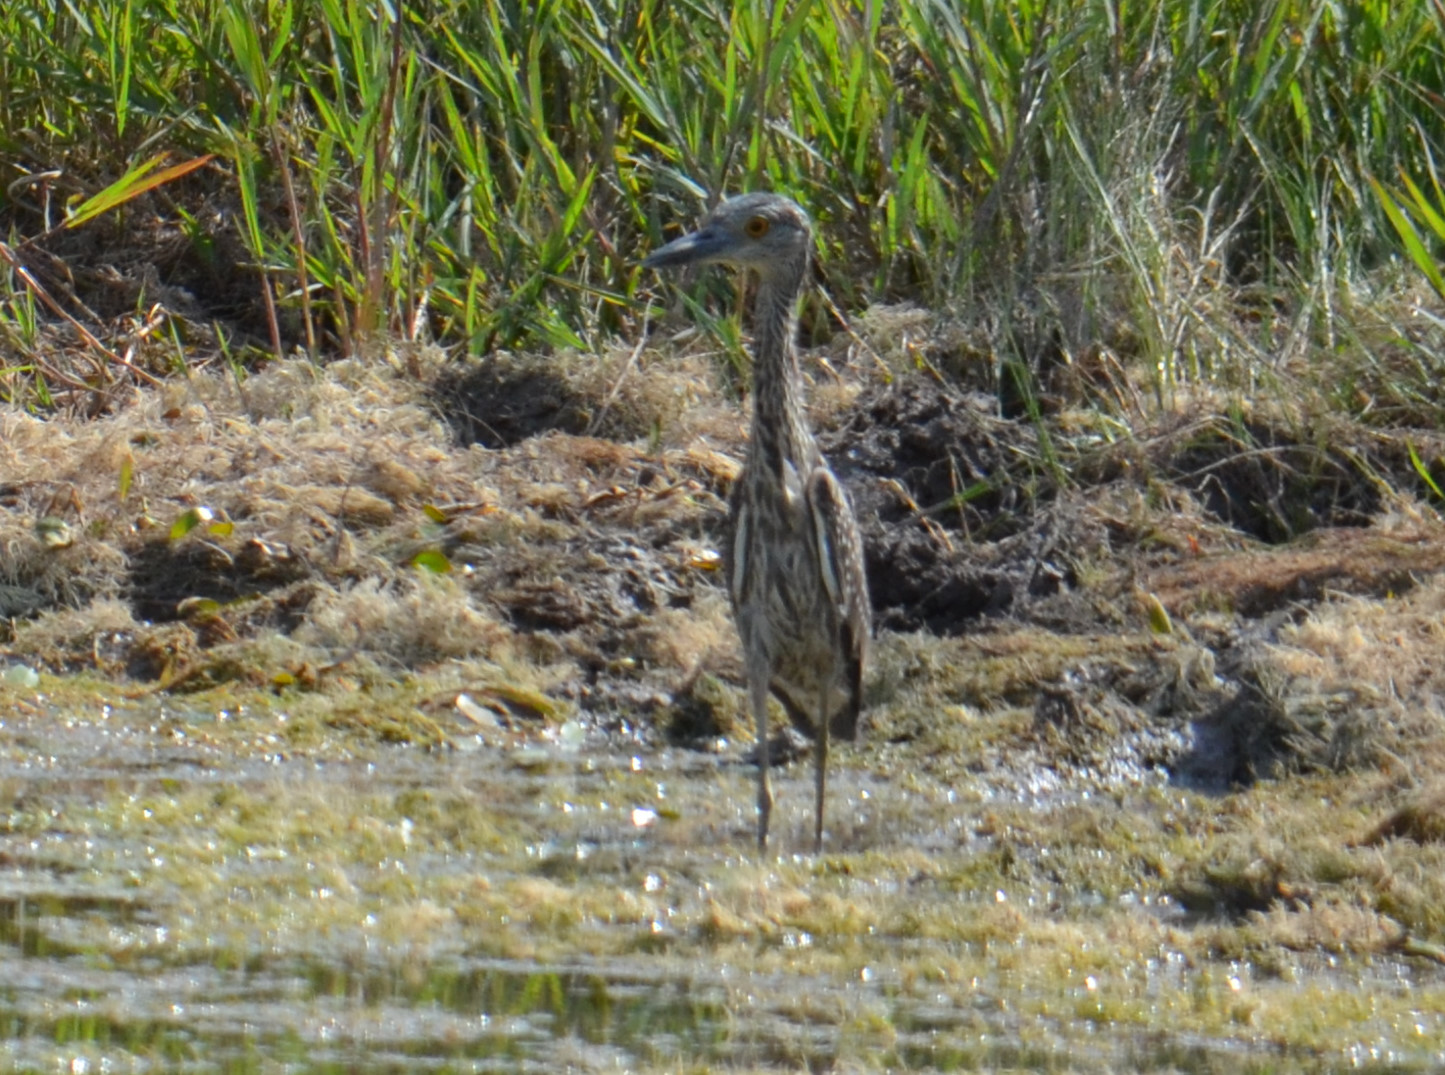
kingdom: Animalia
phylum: Chordata
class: Aves
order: Pelecaniformes
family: Ardeidae
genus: Nyctanassa
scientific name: Nyctanassa violacea
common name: Yellow-crowned night heron
